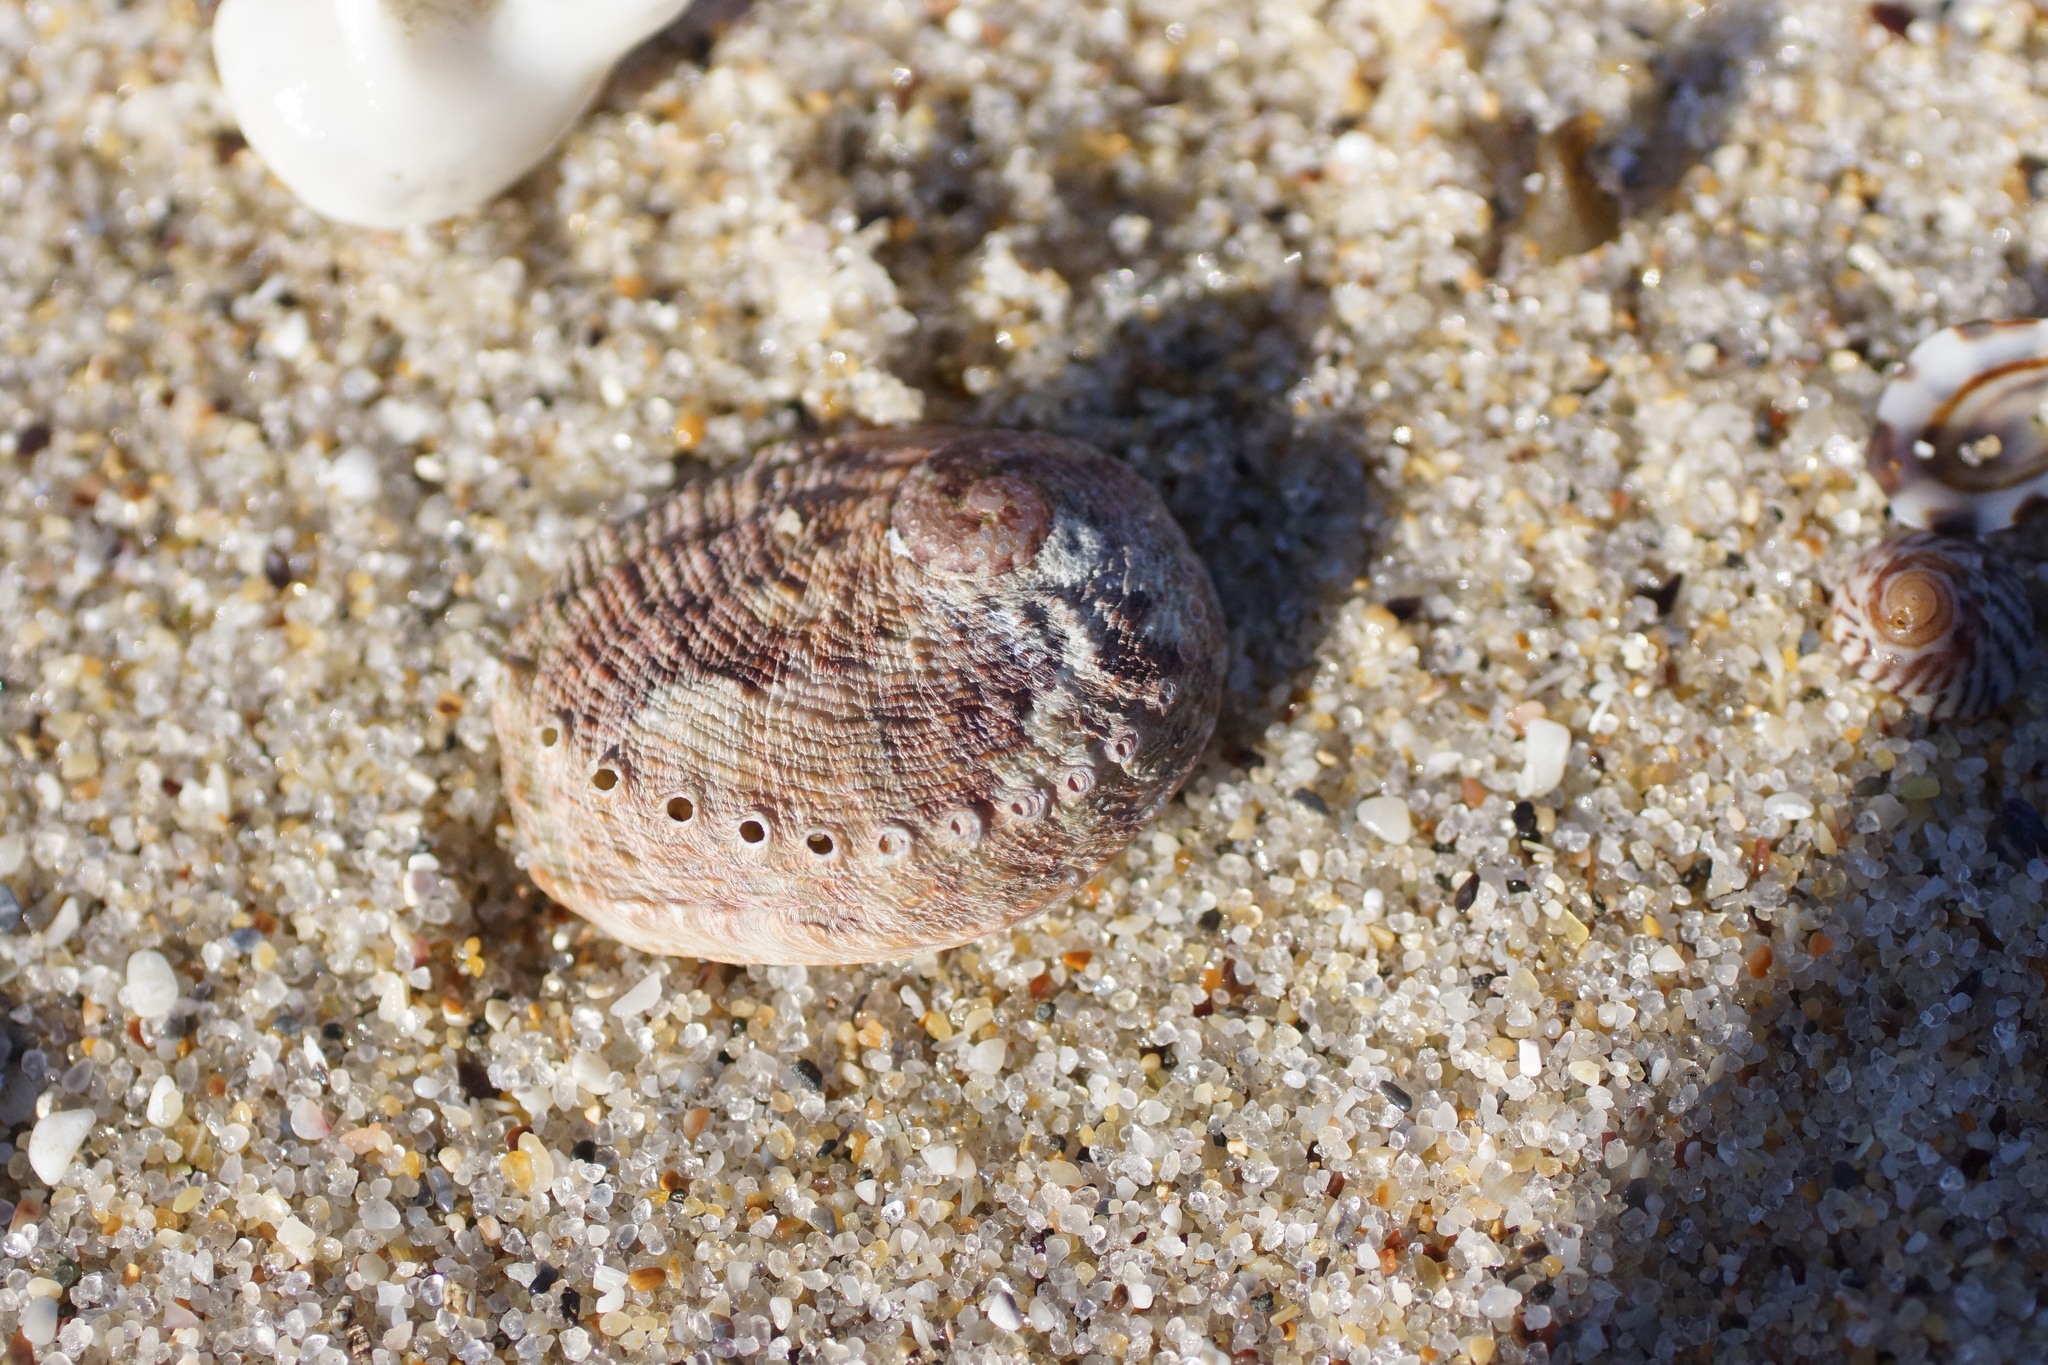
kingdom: Animalia
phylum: Mollusca
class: Gastropoda
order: Lepetellida
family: Haliotidae
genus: Haliotis
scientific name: Haliotis rubra
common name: Blacklip abalone
